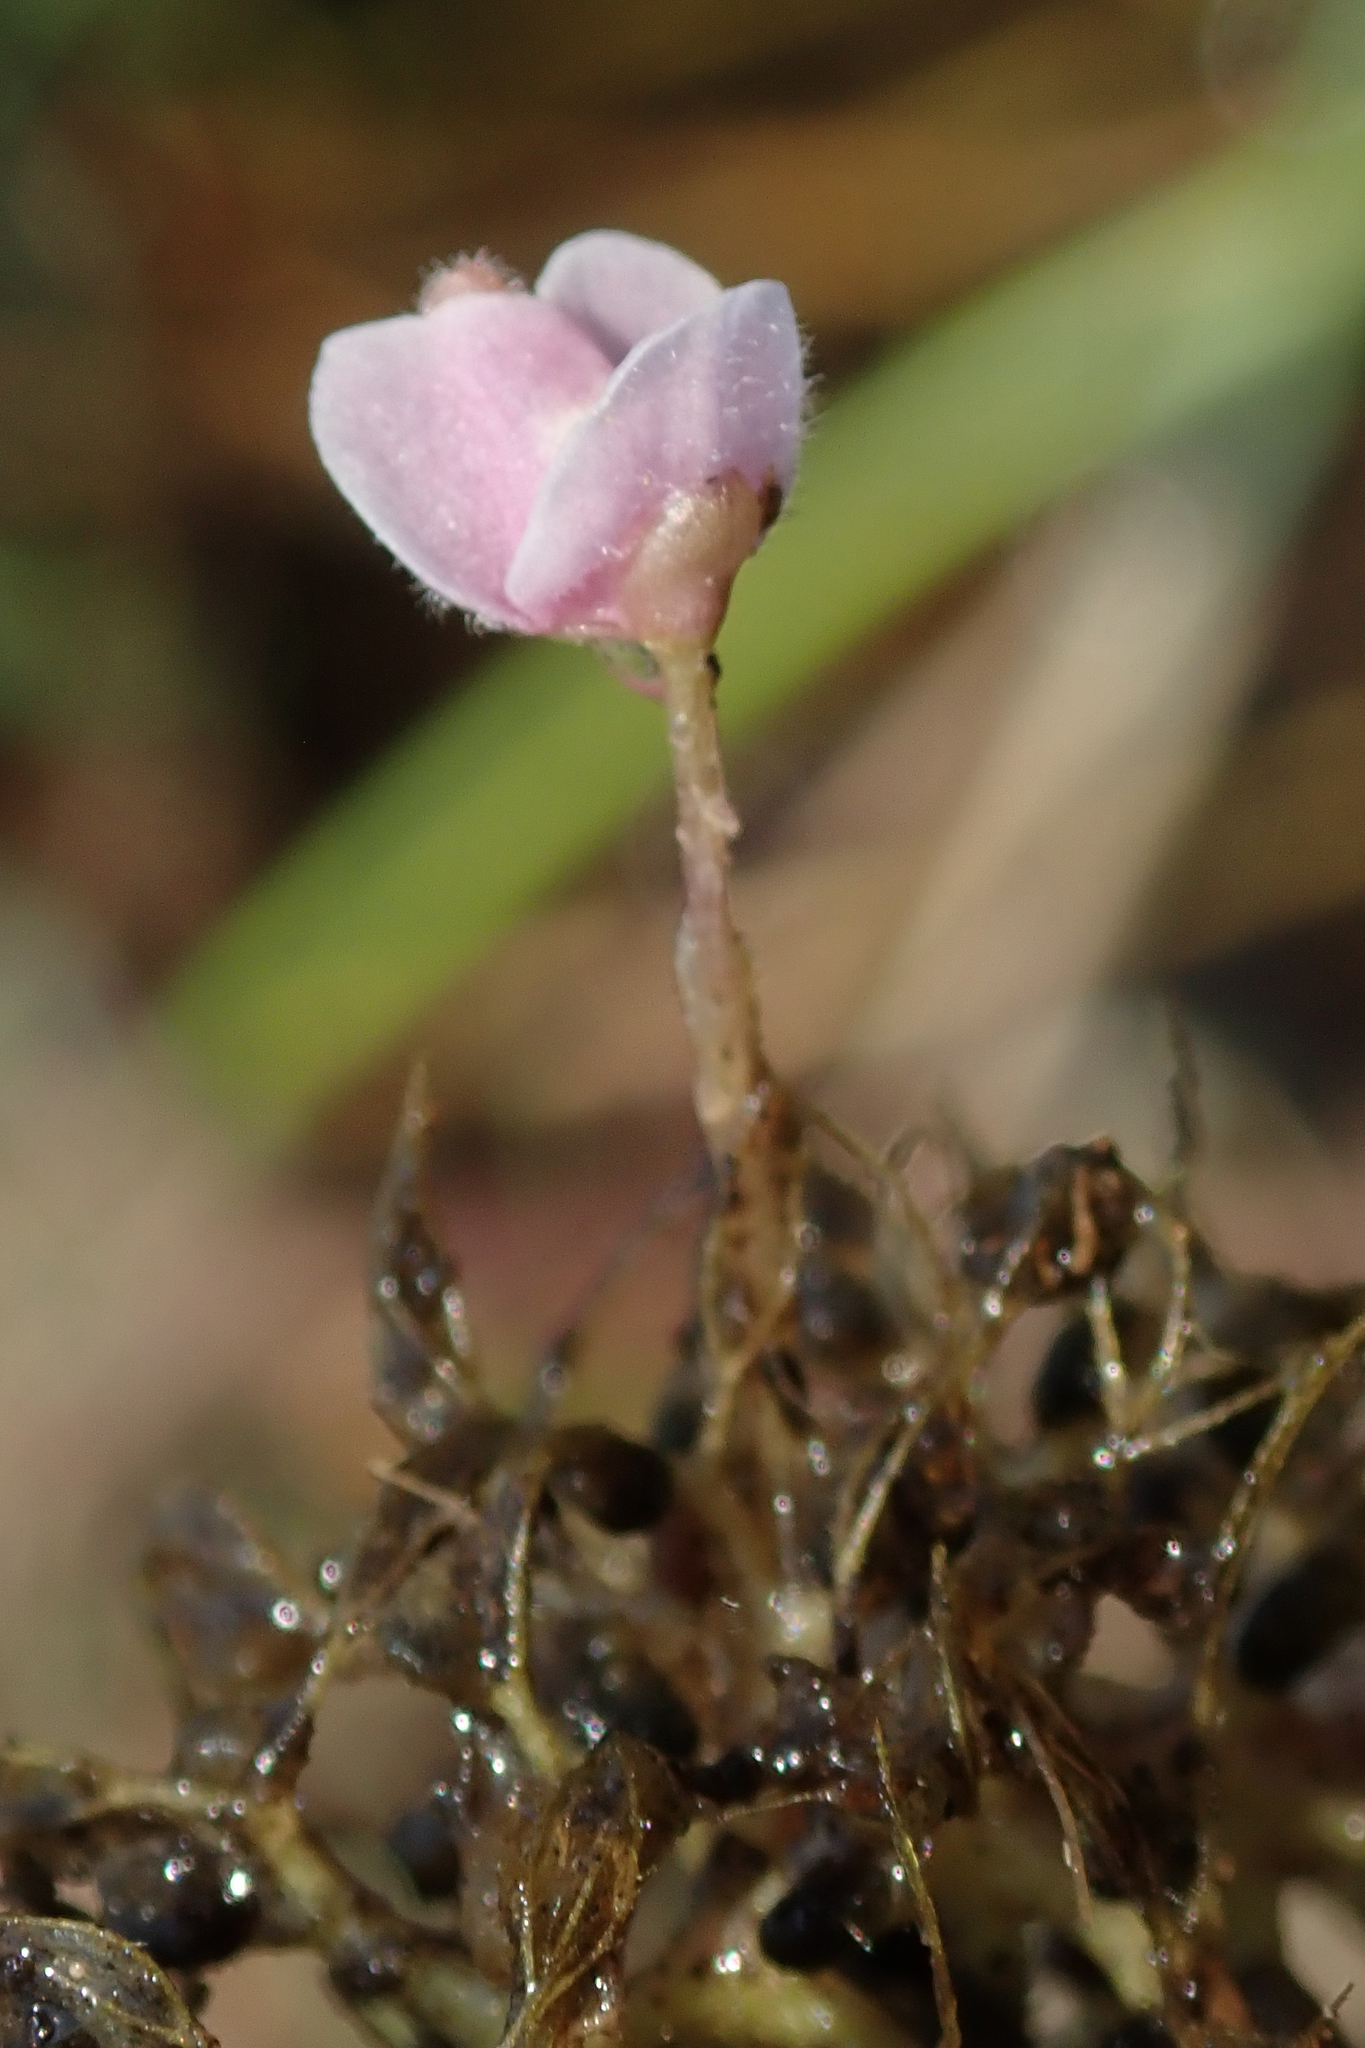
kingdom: Plantae
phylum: Tracheophyta
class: Magnoliopsida
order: Lamiales
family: Lentibulariaceae
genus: Utricularia
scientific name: Utricularia raynalii
